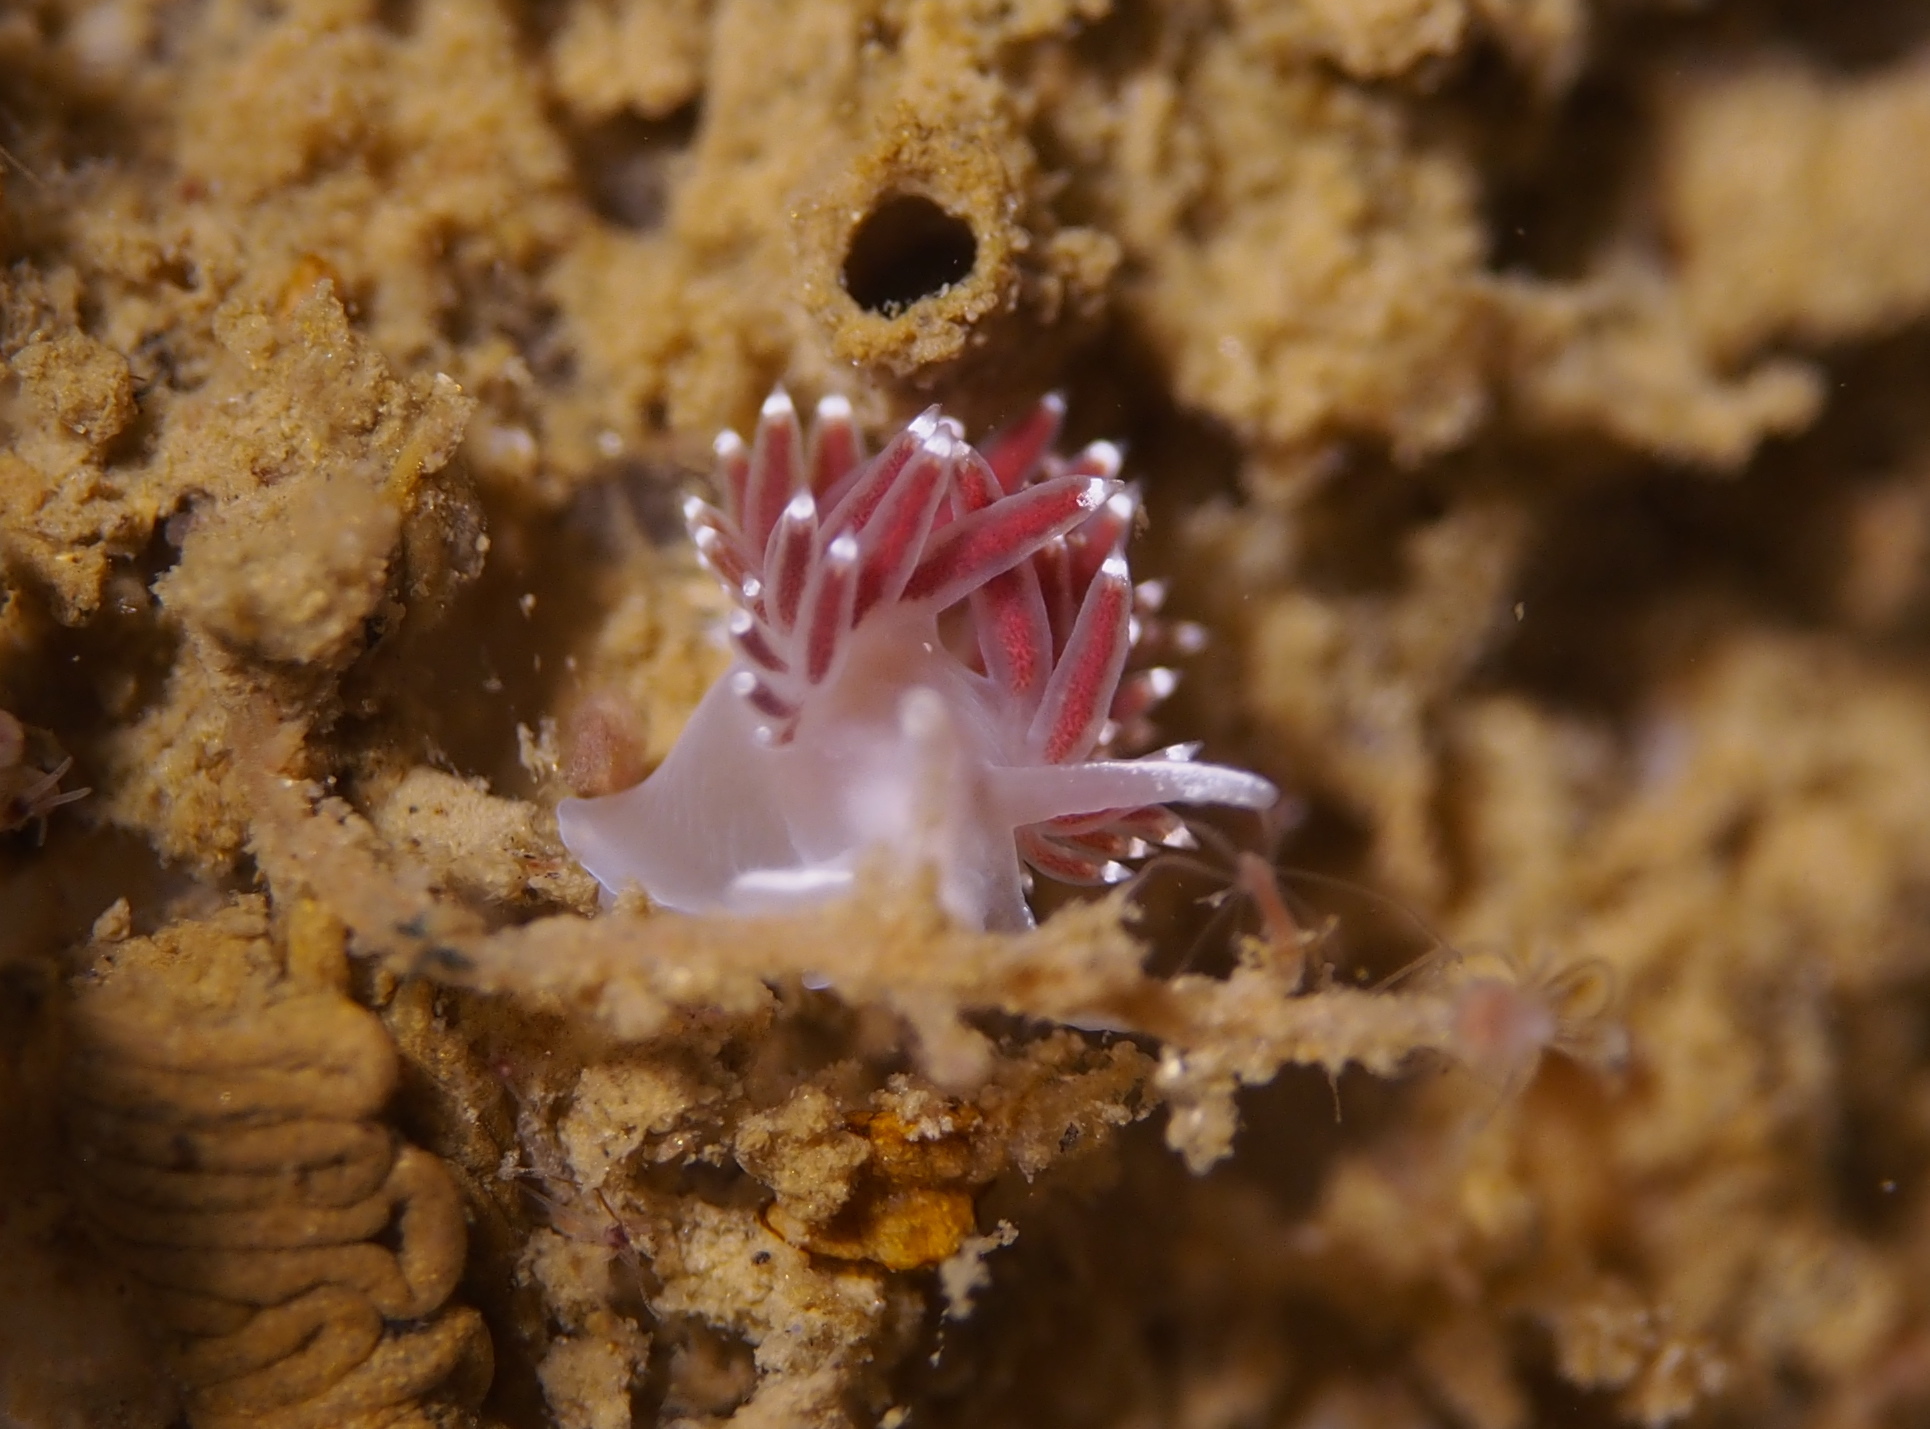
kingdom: Animalia
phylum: Mollusca
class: Gastropoda
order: Nudibranchia
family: Coryphellidae
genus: Coryphella
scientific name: Coryphella verrucosa
